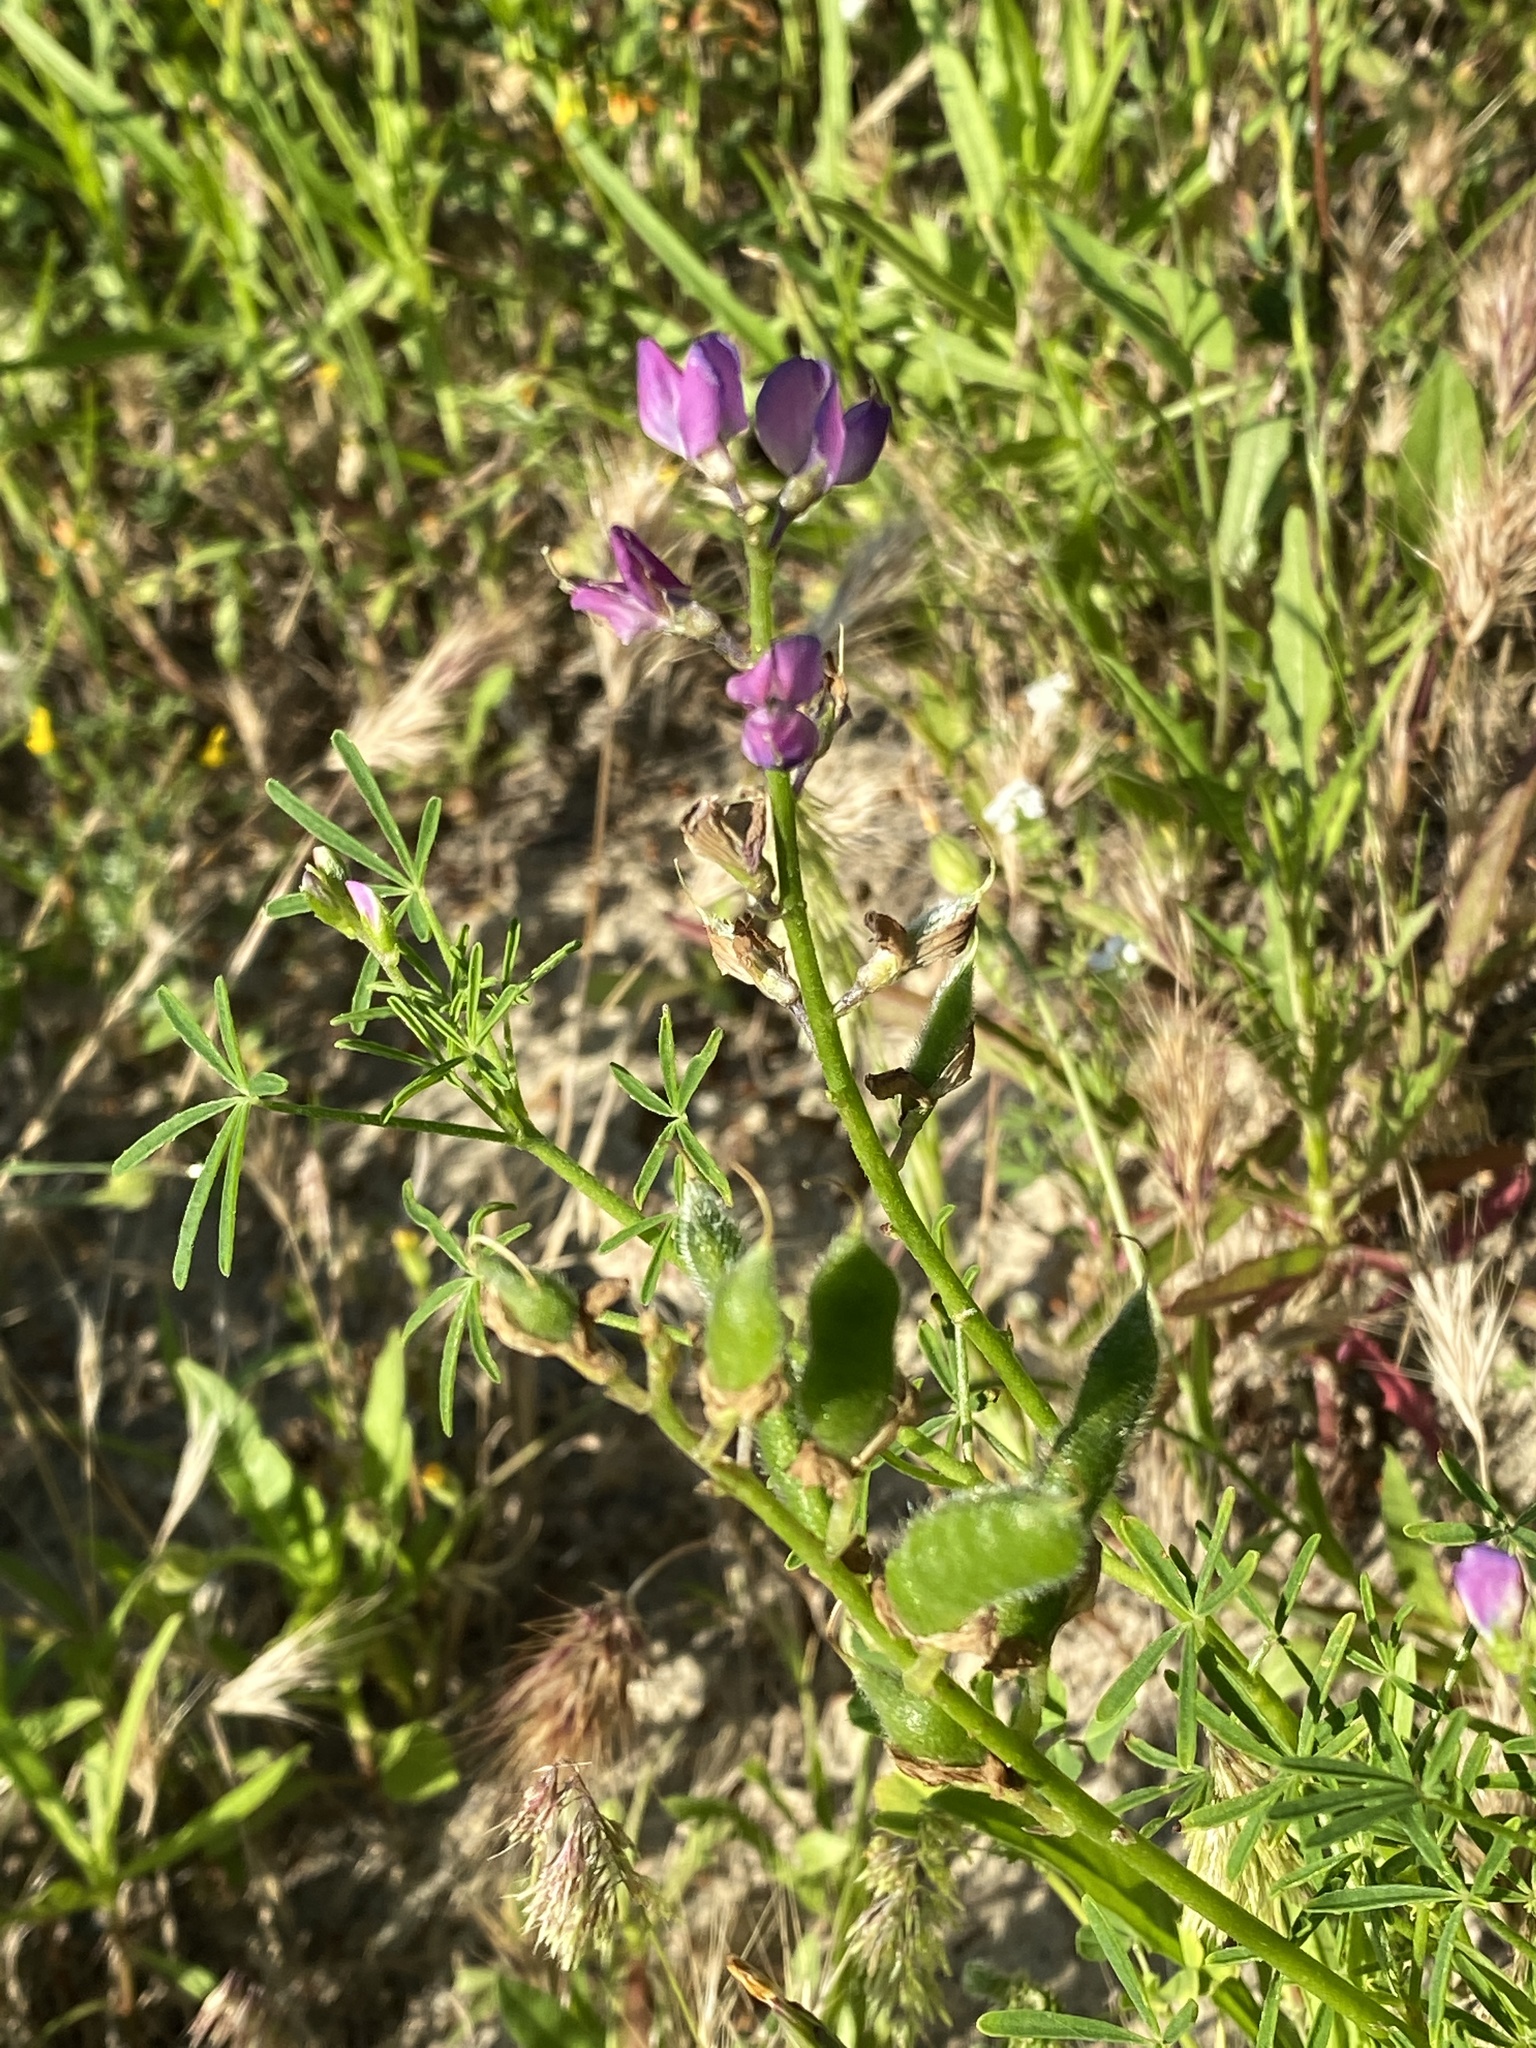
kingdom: Plantae
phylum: Tracheophyta
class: Magnoliopsida
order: Fabales
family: Fabaceae
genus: Lupinus
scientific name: Lupinus truncatus
